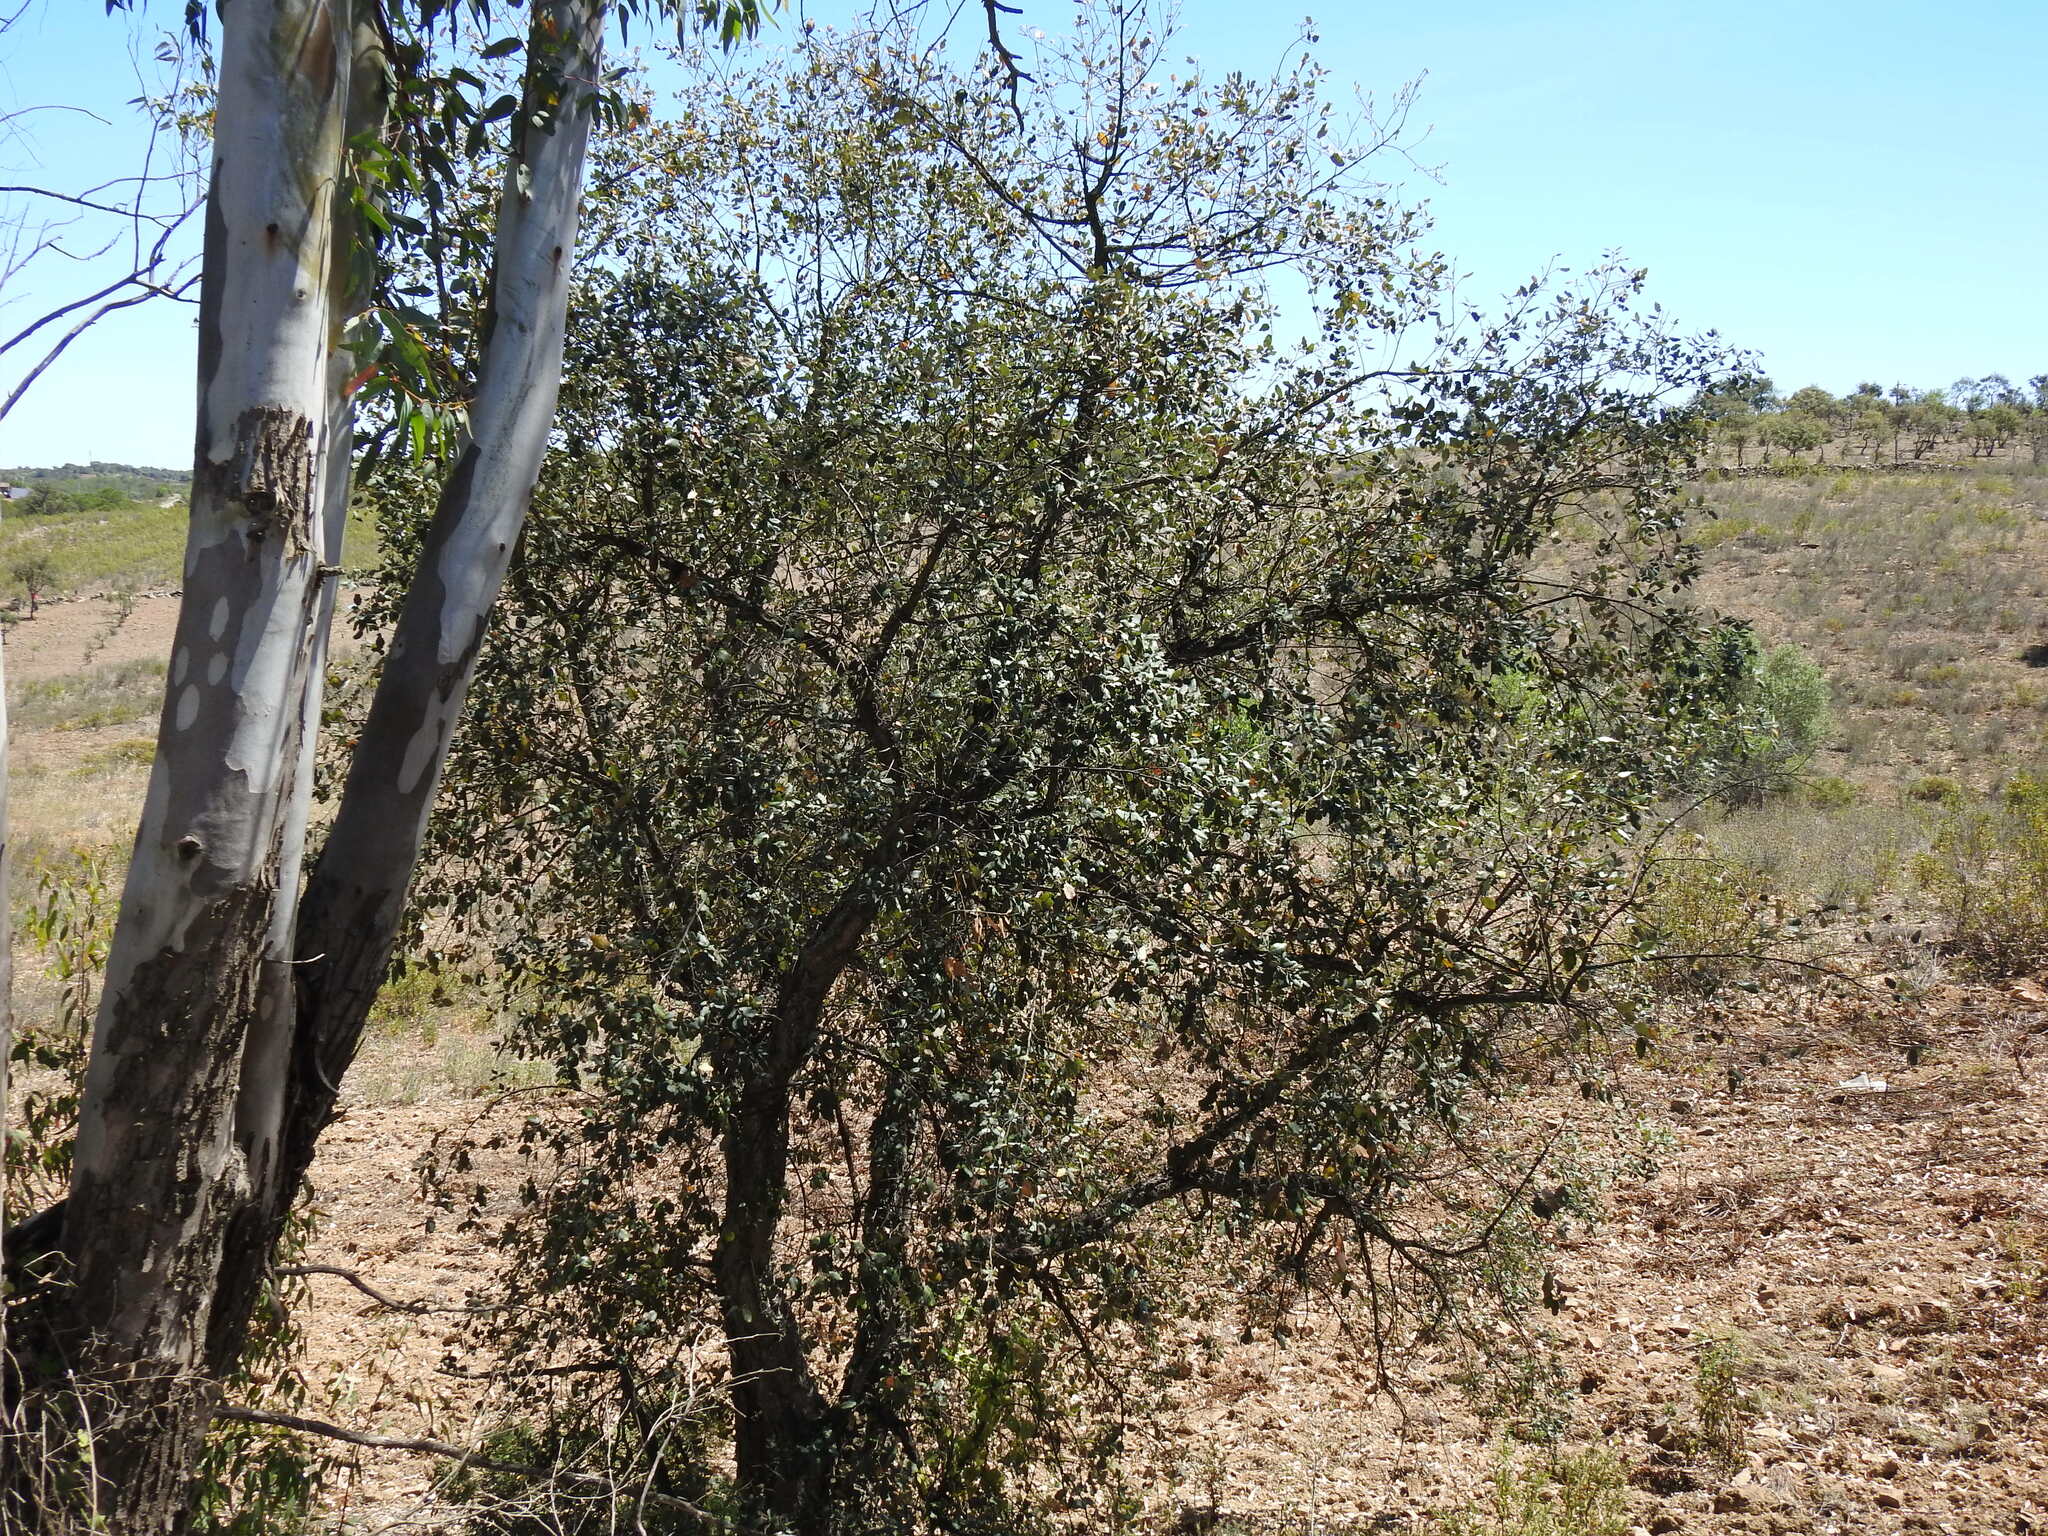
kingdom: Plantae
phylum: Tracheophyta
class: Magnoliopsida
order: Fagales
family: Fagaceae
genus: Quercus
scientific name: Quercus suber
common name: Cork oak
